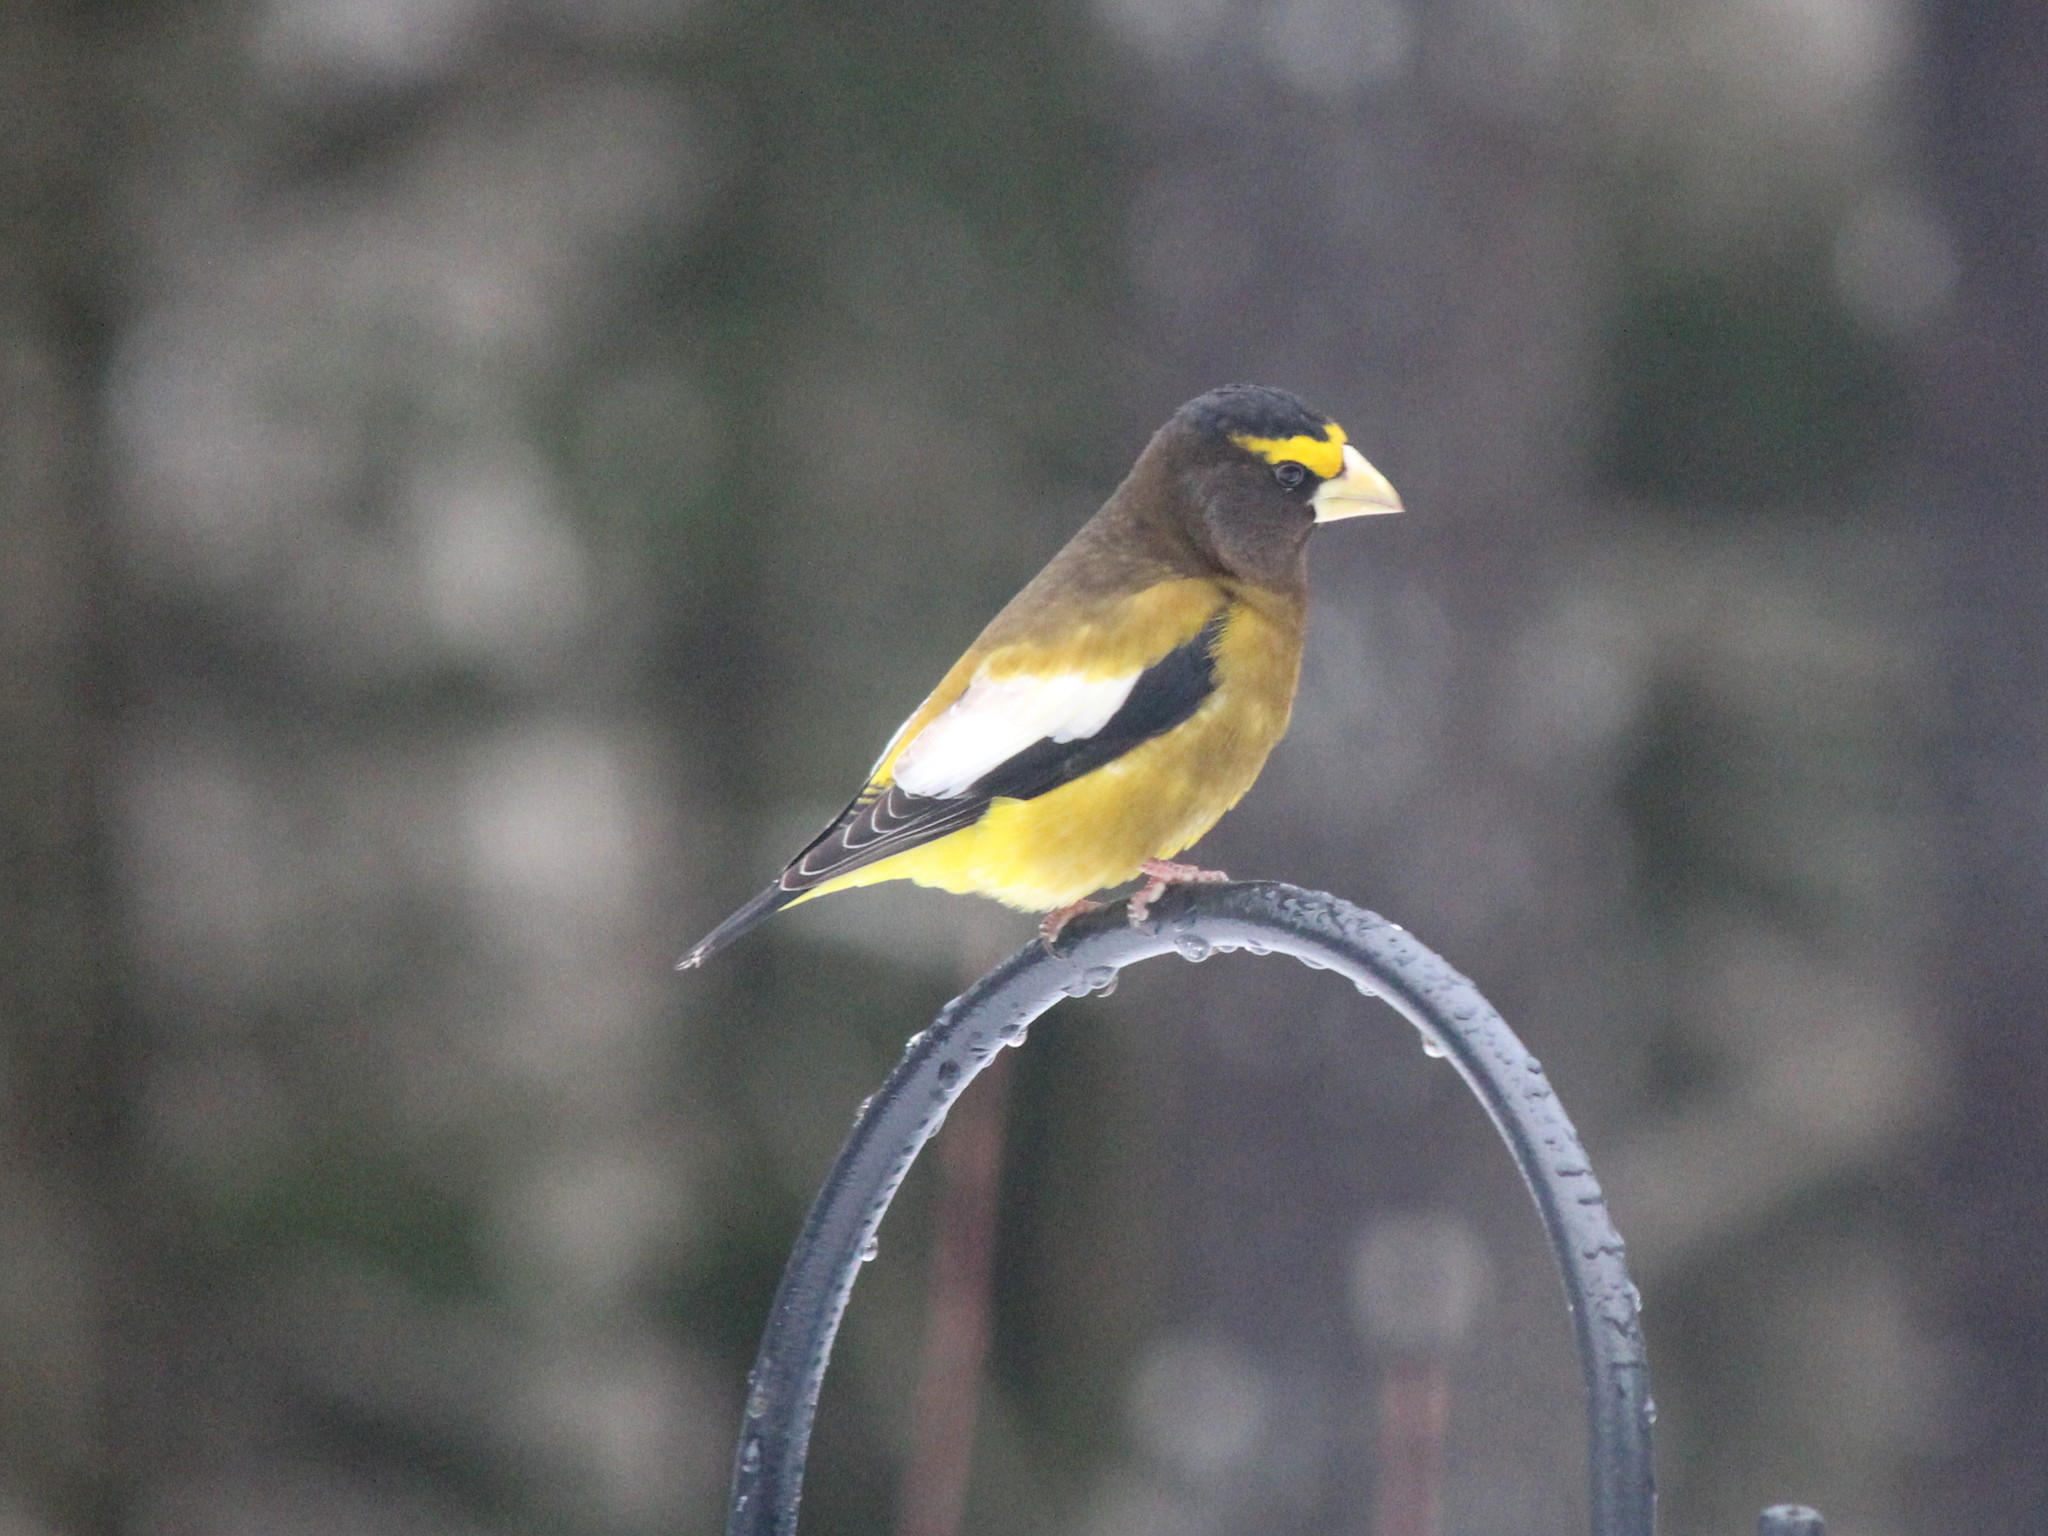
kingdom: Animalia
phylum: Chordata
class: Aves
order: Passeriformes
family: Fringillidae
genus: Hesperiphona
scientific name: Hesperiphona vespertina
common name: Evening grosbeak
